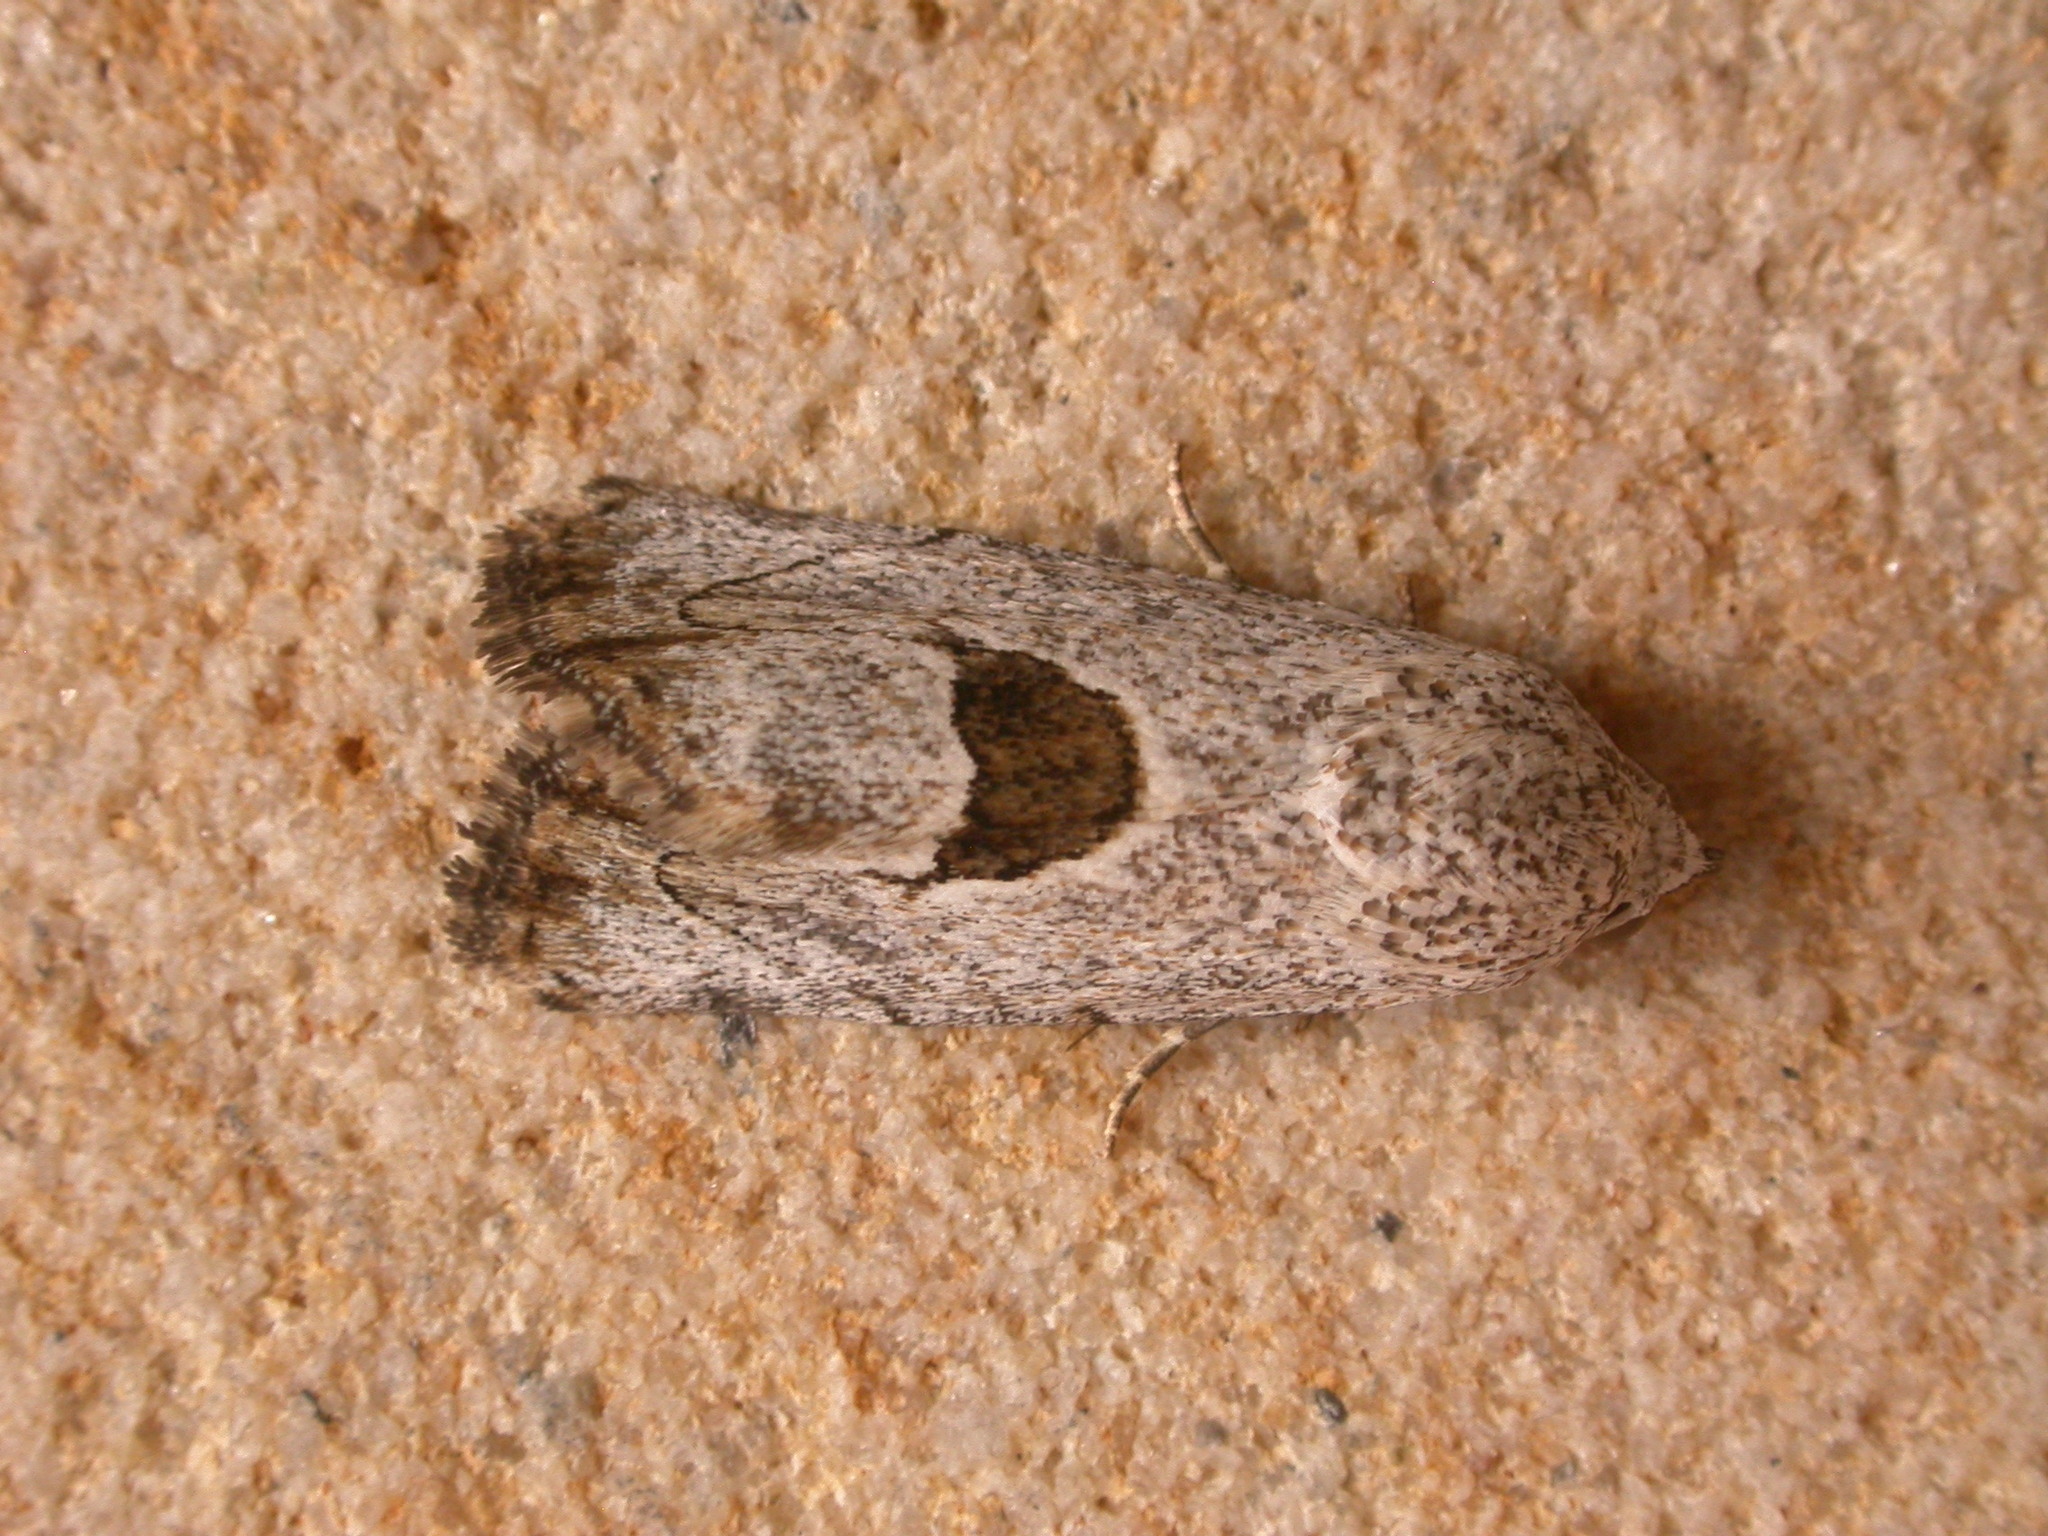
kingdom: Animalia
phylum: Arthropoda
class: Insecta
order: Lepidoptera
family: Nolidae
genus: Armactica
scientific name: Armactica conchidia
